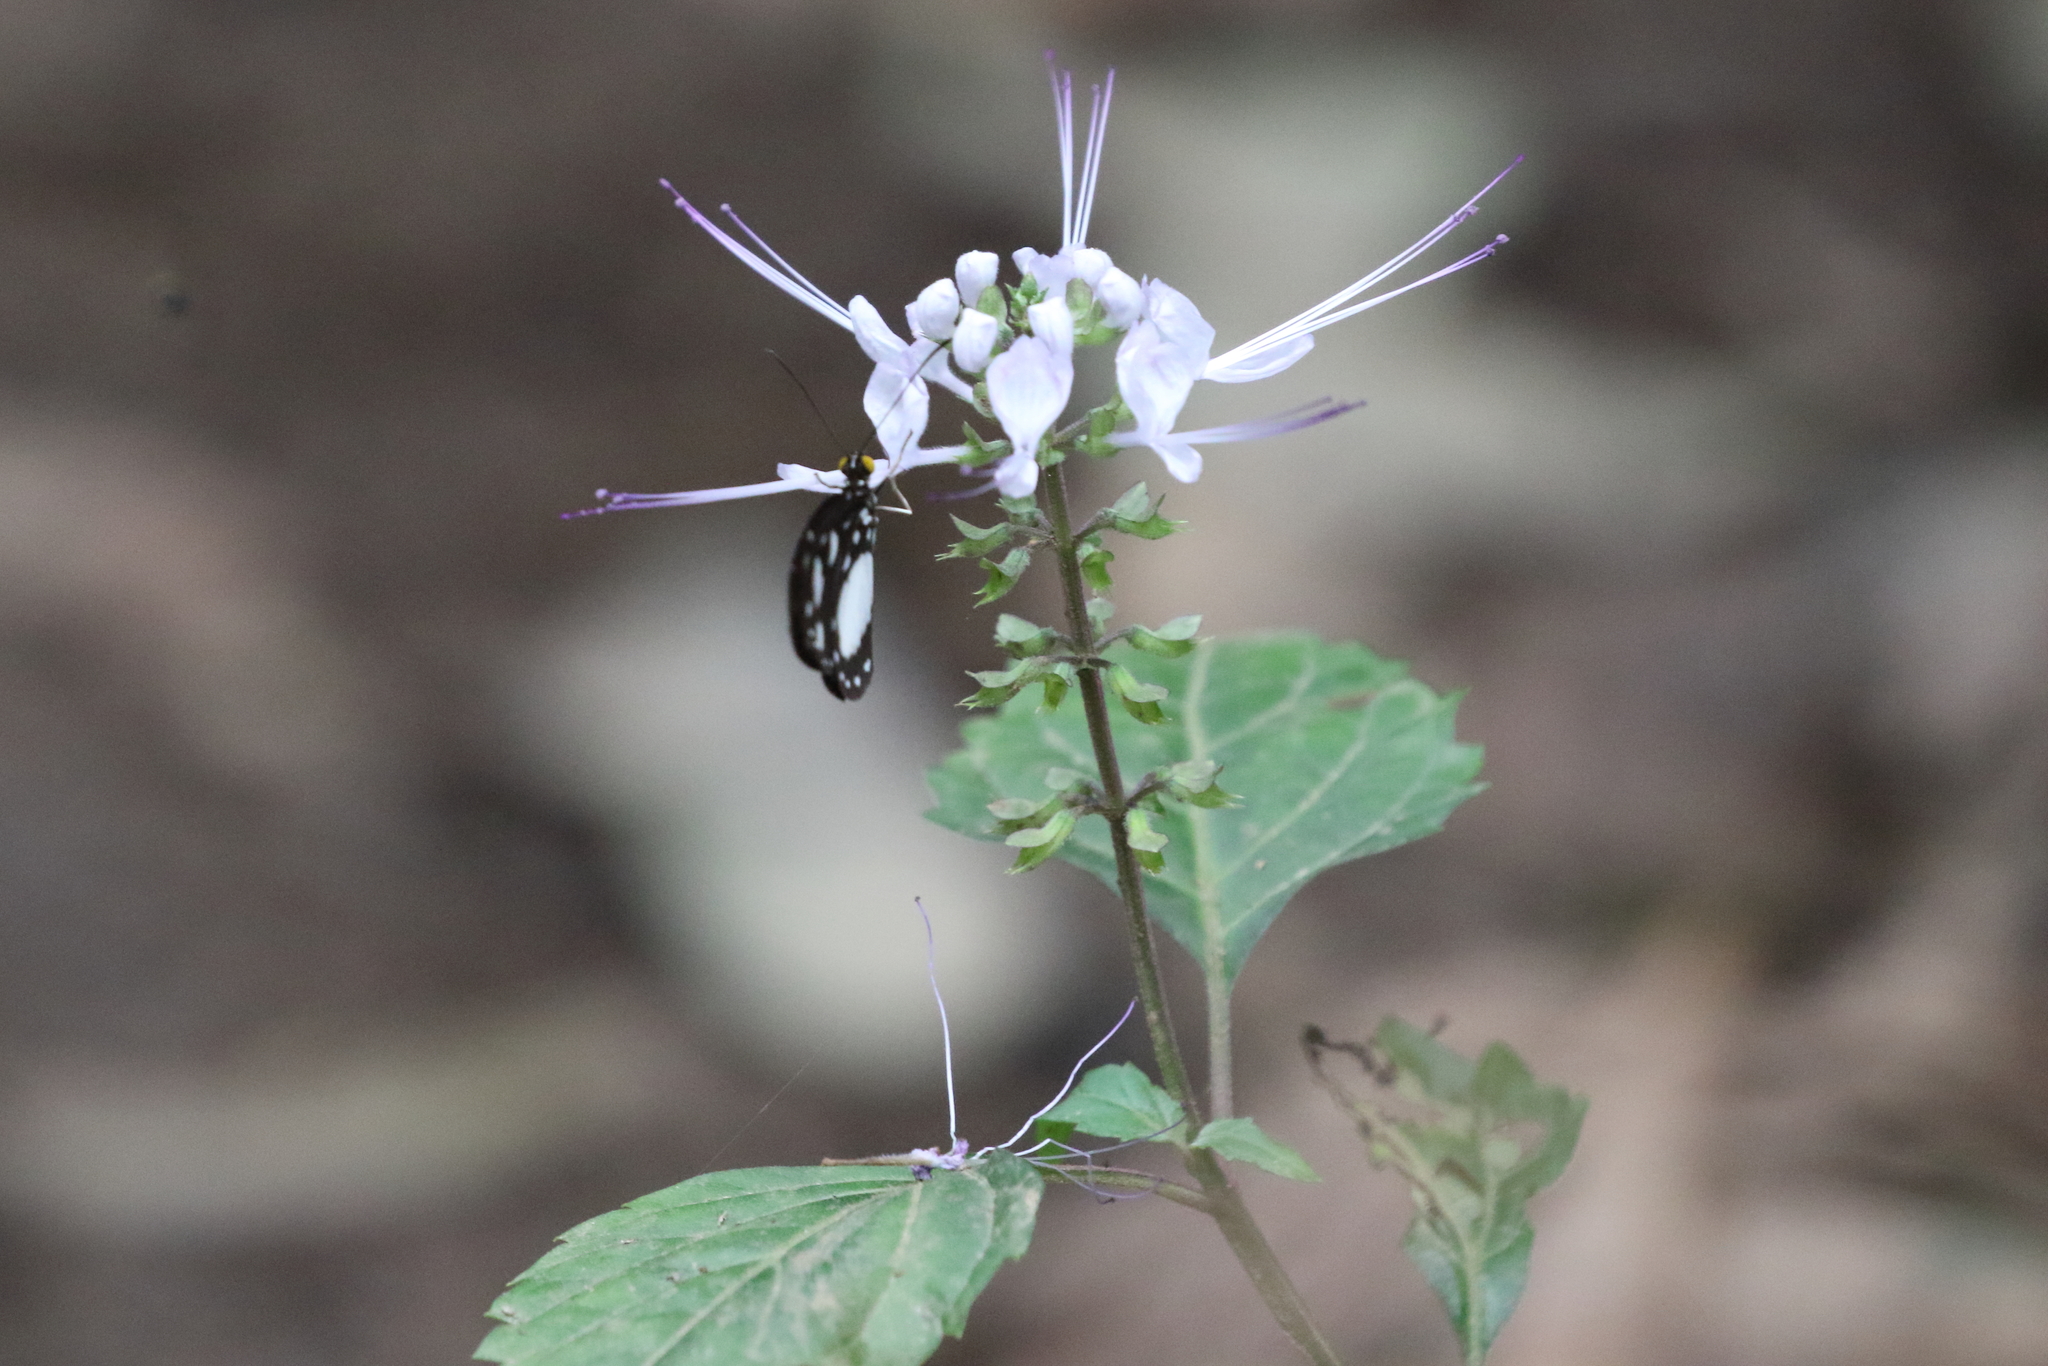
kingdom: Plantae
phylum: Tracheophyta
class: Magnoliopsida
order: Lamiales
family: Lamiaceae
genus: Orthosiphon
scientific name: Orthosiphon aristatus
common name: Whiskerplant
